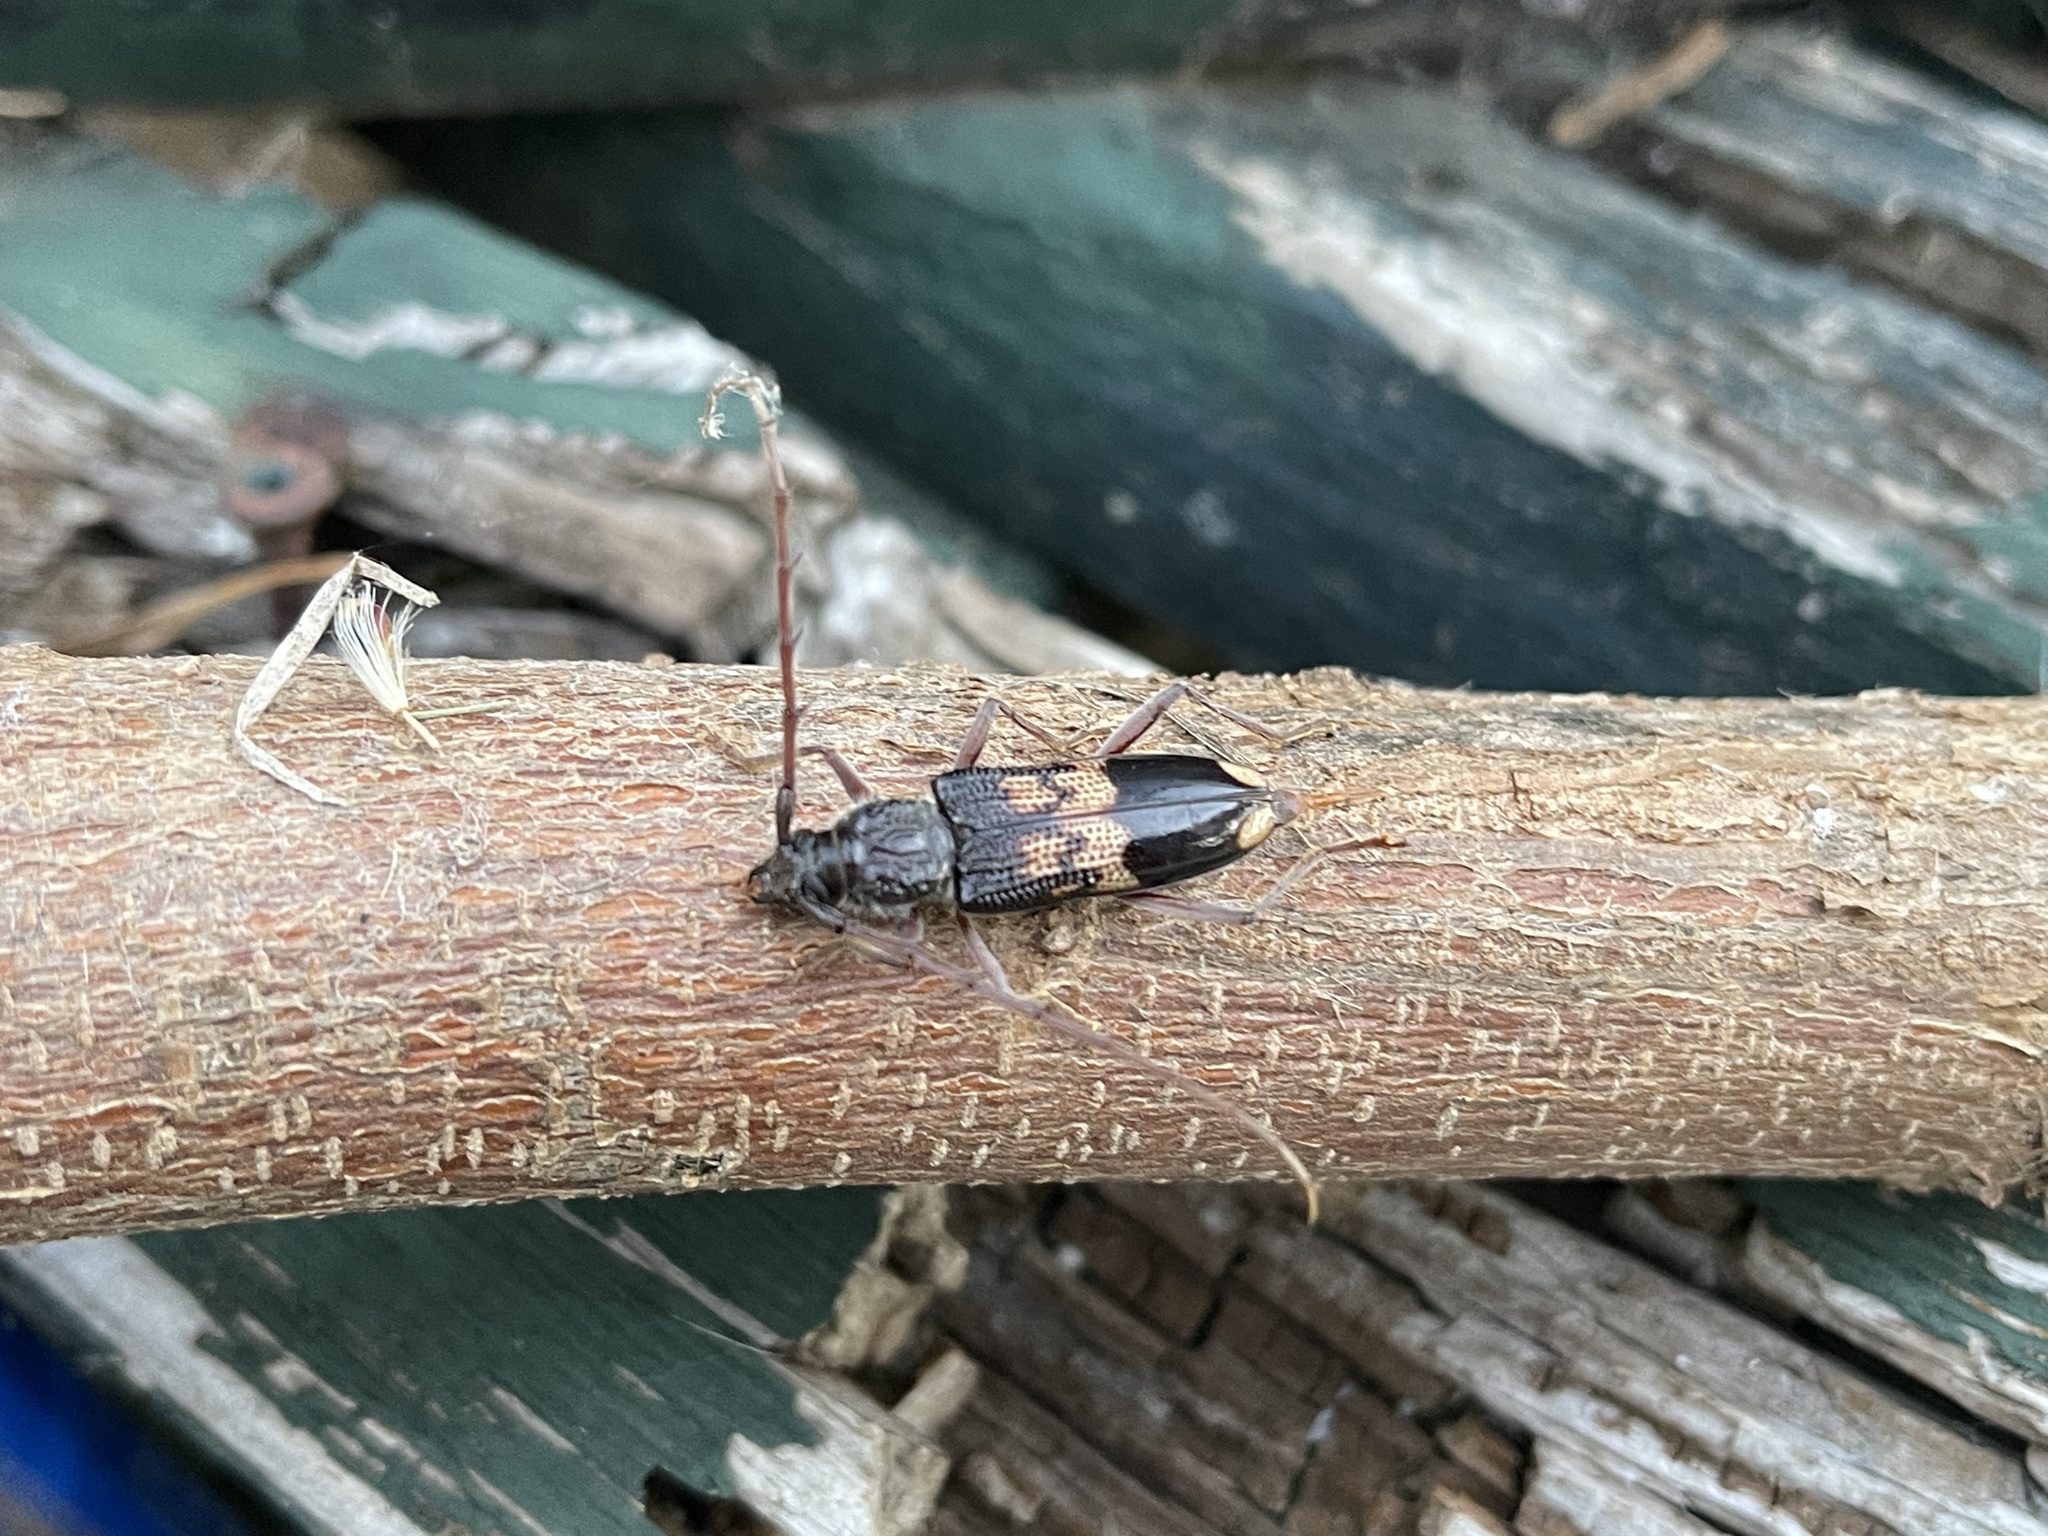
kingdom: Animalia
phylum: Arthropoda
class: Insecta
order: Coleoptera
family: Cerambycidae
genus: Phoracantha
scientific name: Phoracantha semipunctata
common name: Eucalyptus longhorn borer
